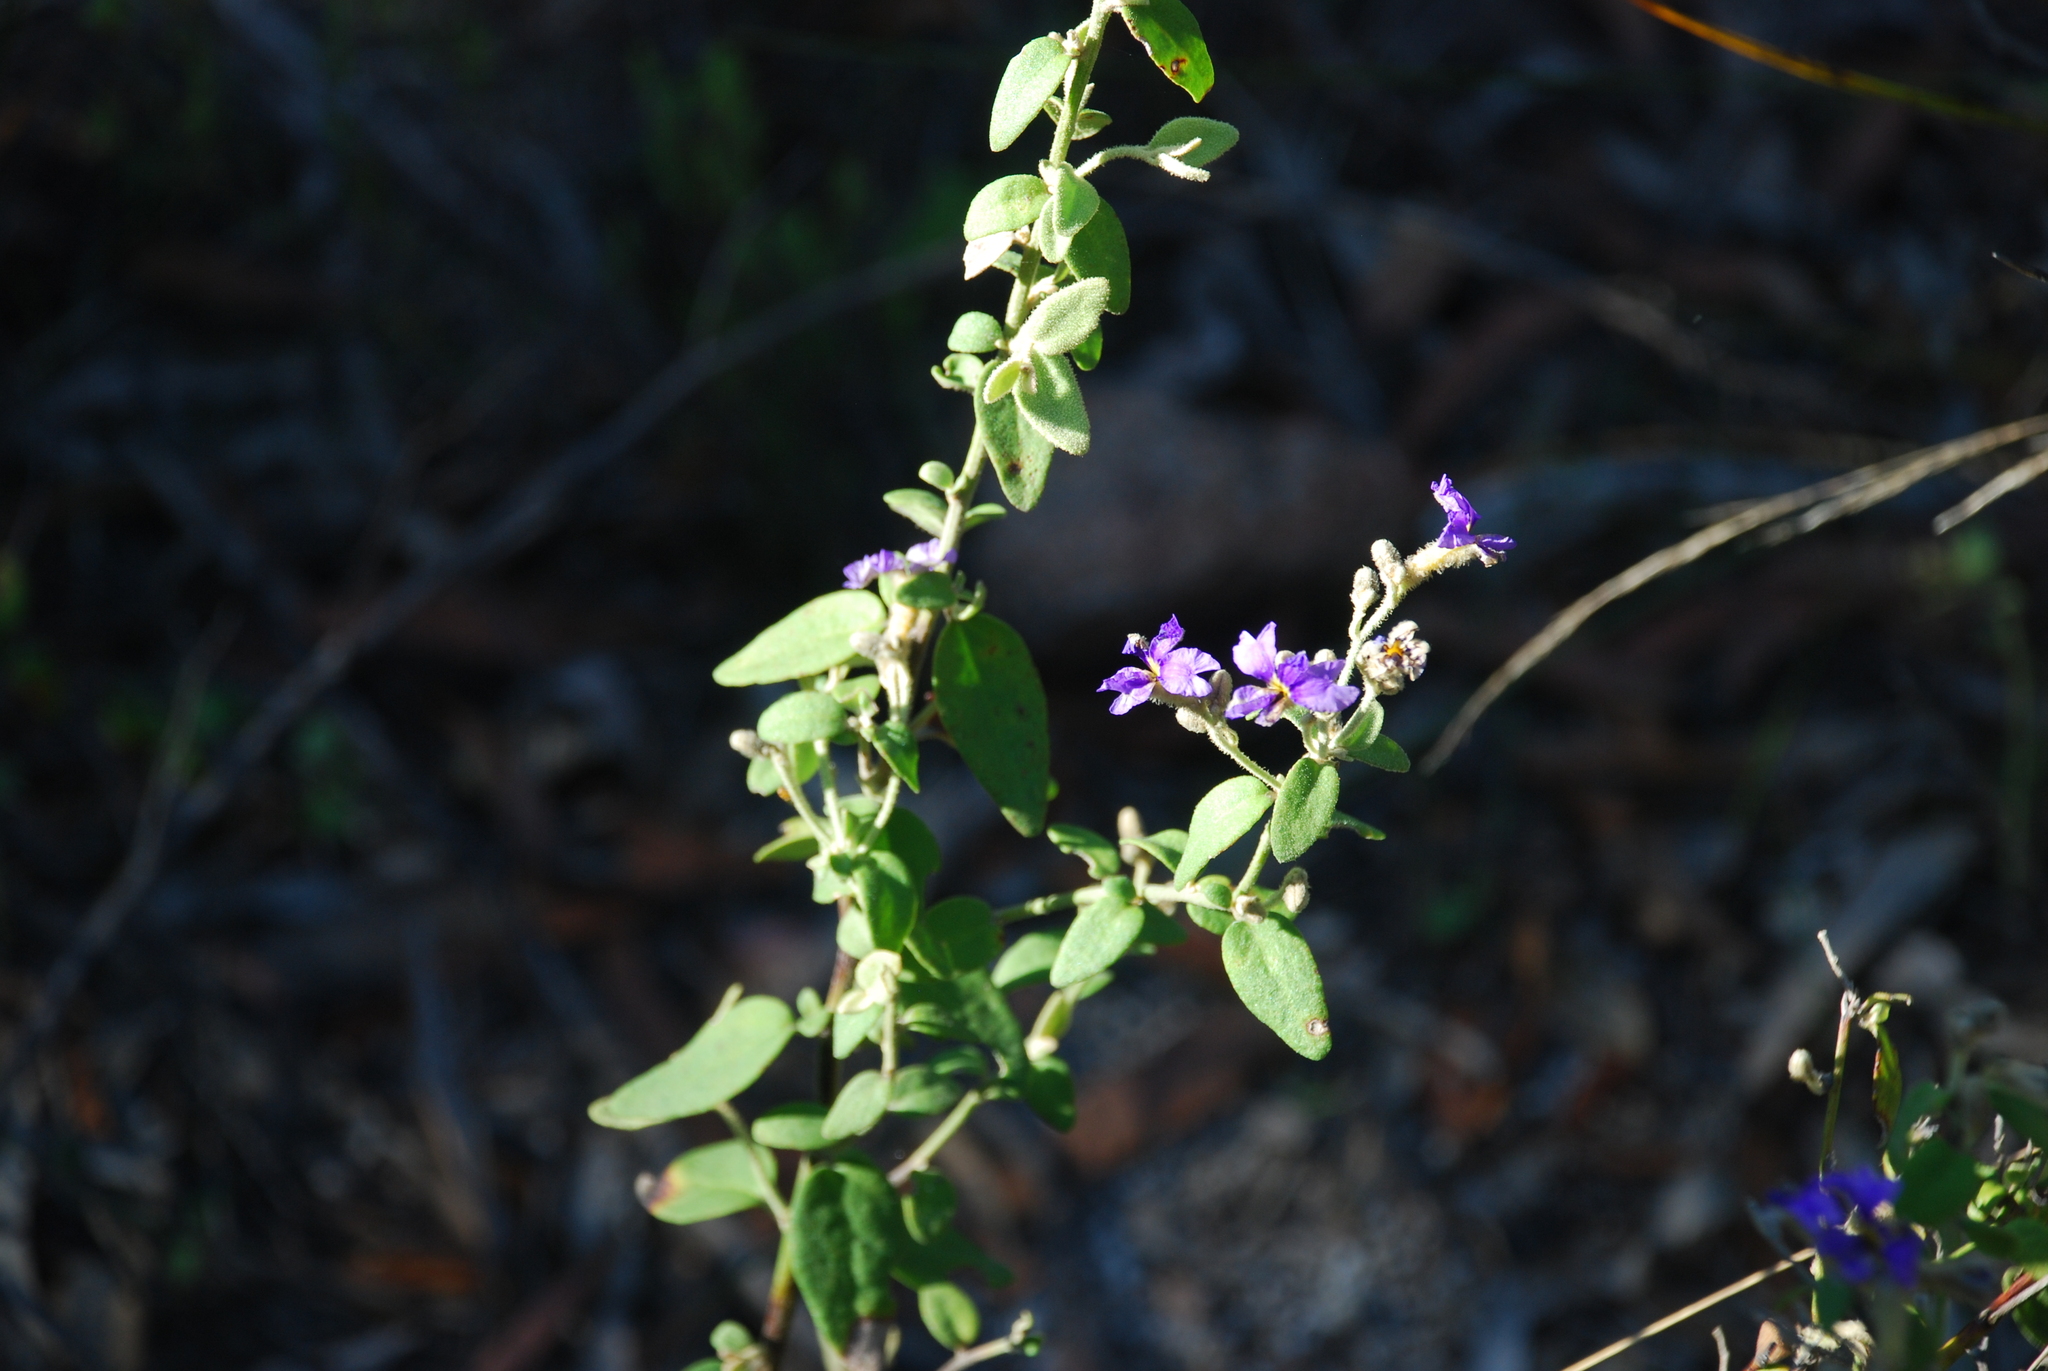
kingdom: Plantae
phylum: Tracheophyta
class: Magnoliopsida
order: Asterales
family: Goodeniaceae
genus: Dampiera
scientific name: Dampiera purpurea
